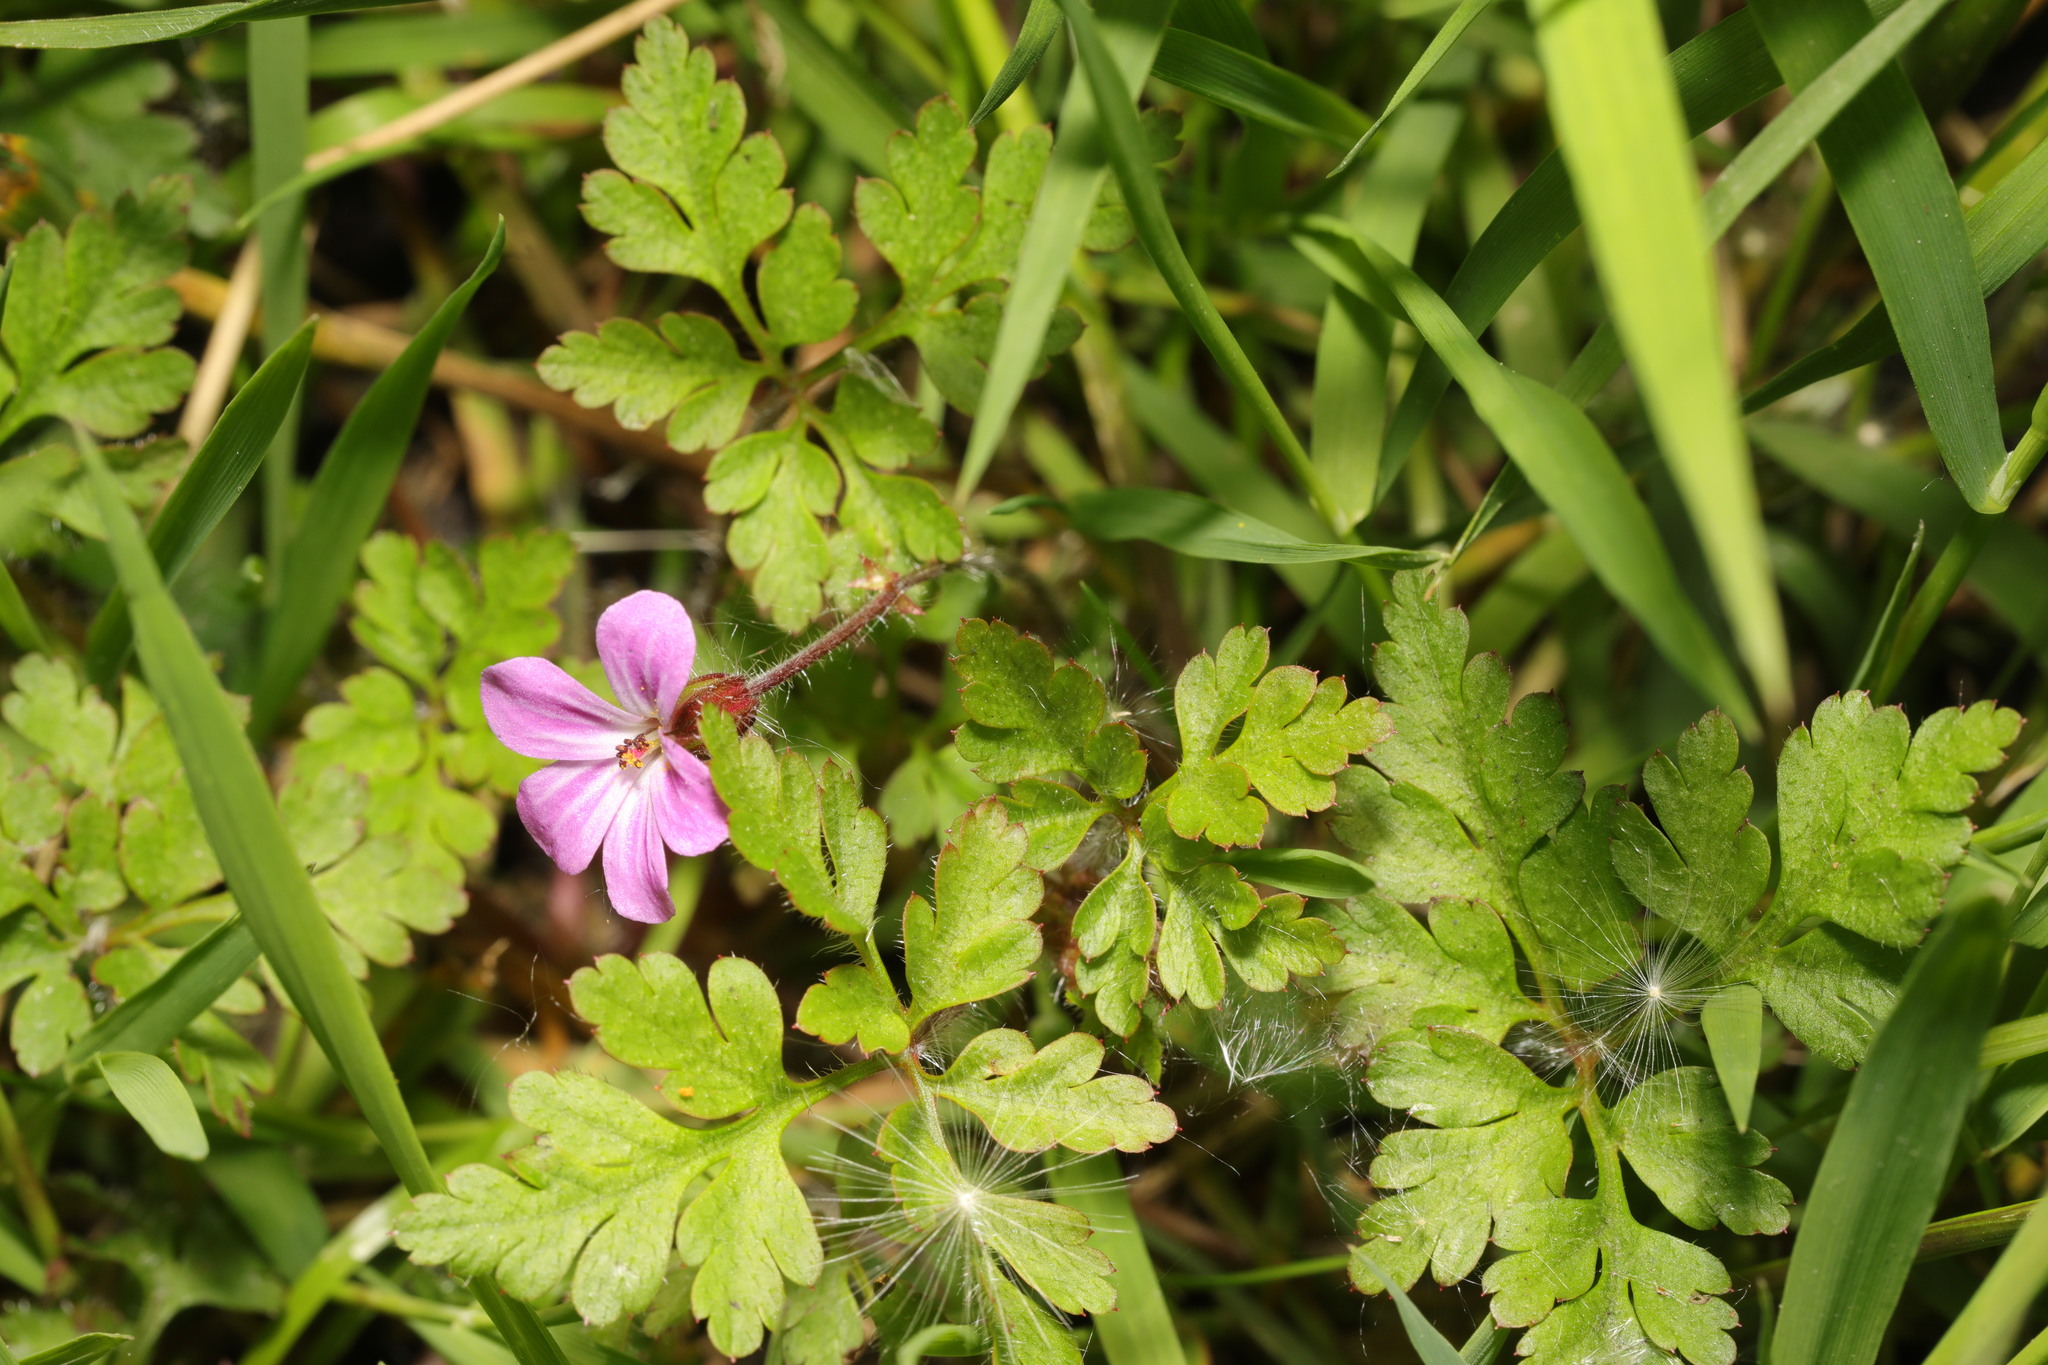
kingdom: Plantae
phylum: Tracheophyta
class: Magnoliopsida
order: Geraniales
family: Geraniaceae
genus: Geranium
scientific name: Geranium robertianum
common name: Herb-robert
